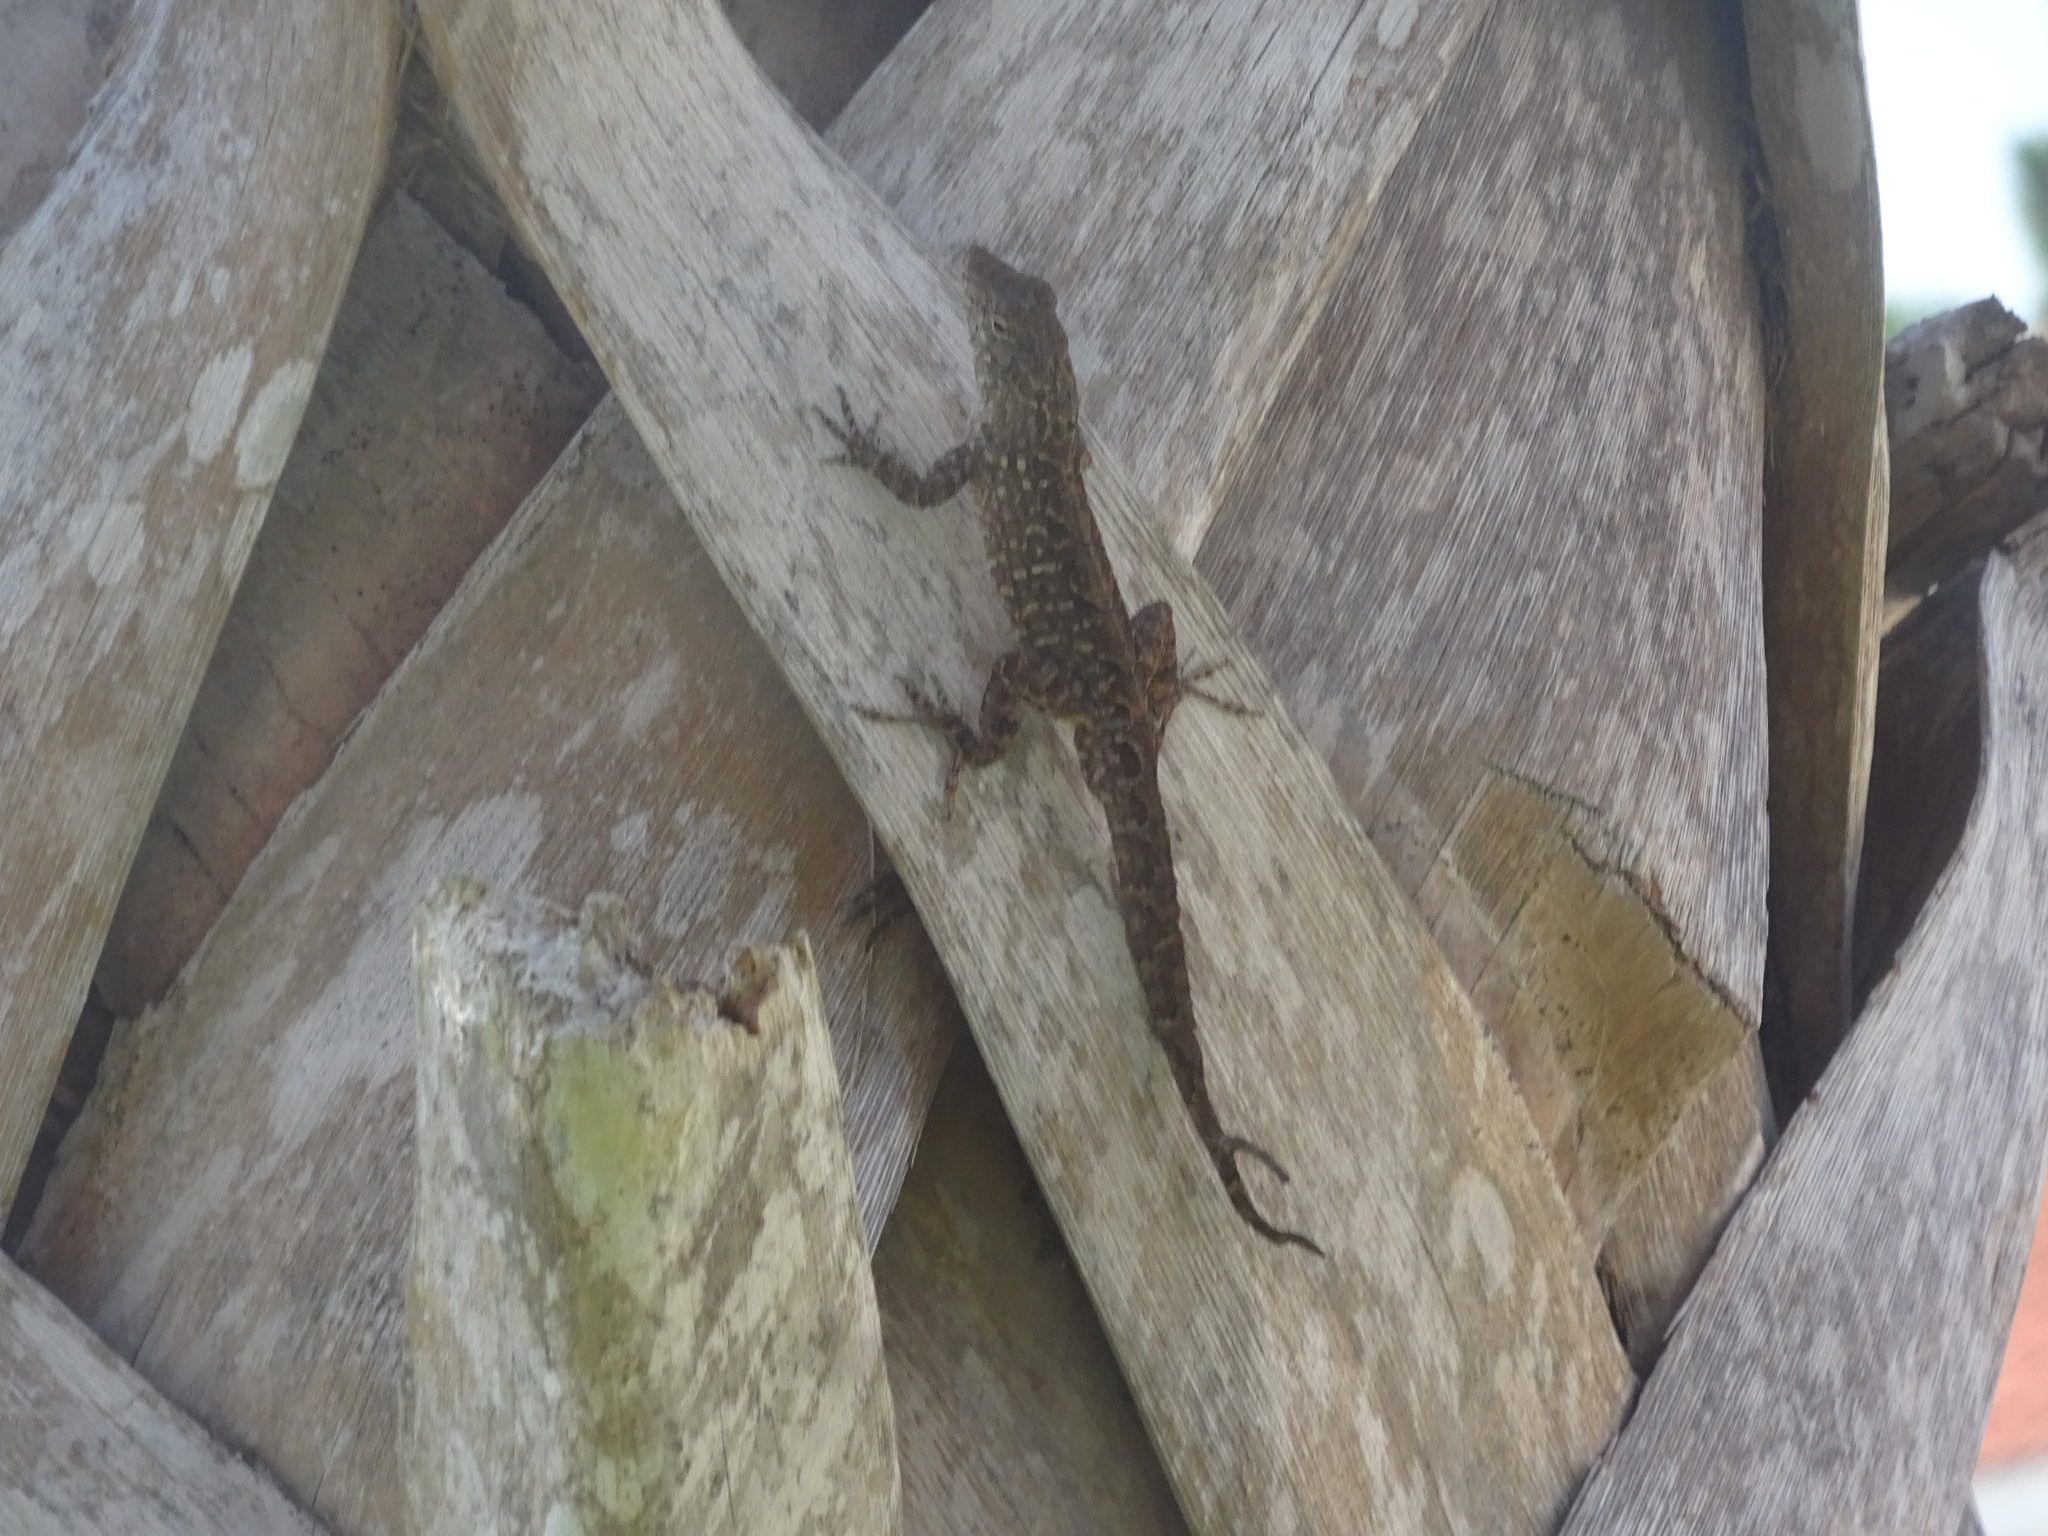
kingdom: Animalia
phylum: Chordata
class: Squamata
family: Dactyloidae
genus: Anolis
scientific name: Anolis sagrei
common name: Brown anole
